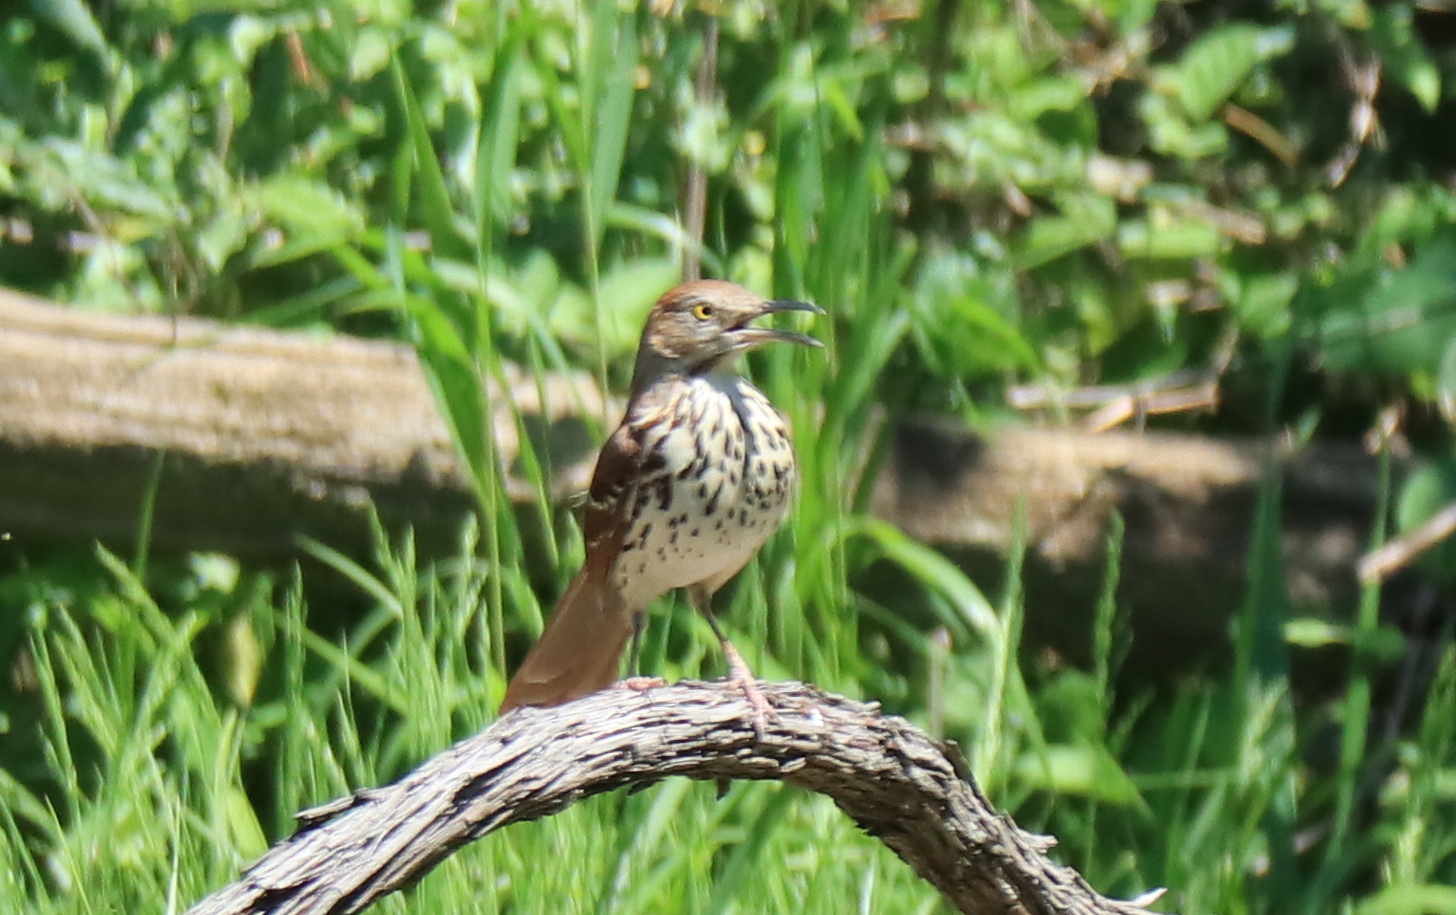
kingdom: Animalia
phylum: Chordata
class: Aves
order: Passeriformes
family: Mimidae
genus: Toxostoma
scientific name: Toxostoma rufum
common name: Brown thrasher
